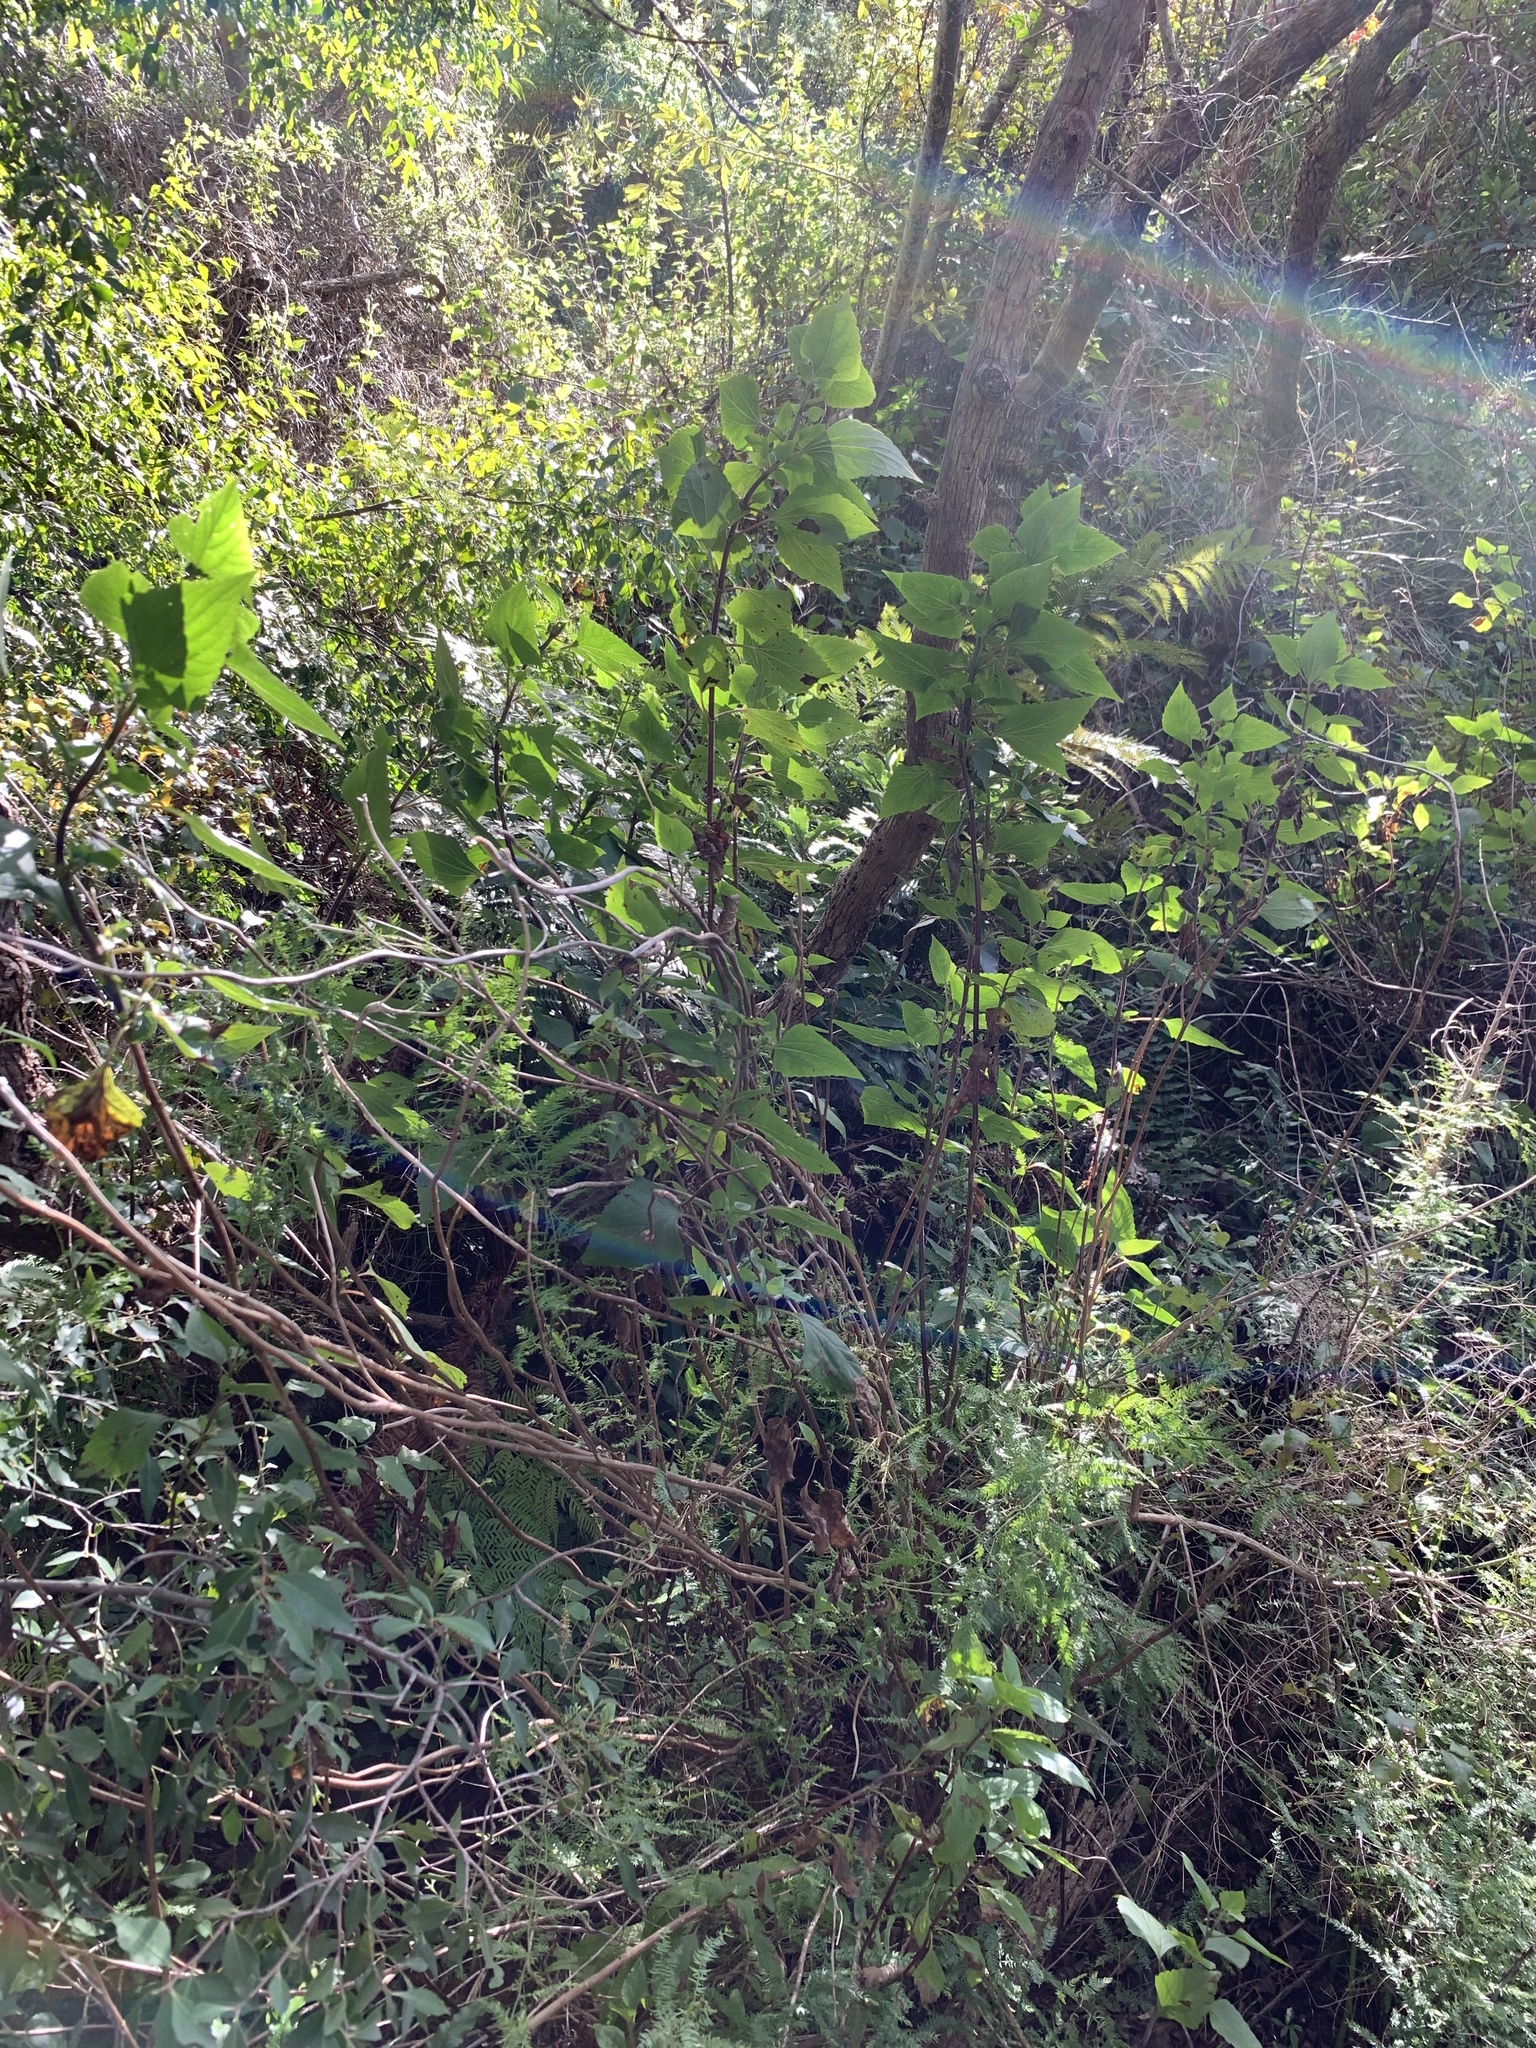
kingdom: Plantae
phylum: Tracheophyta
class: Magnoliopsida
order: Asterales
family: Asteraceae
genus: Ageratina
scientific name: Ageratina adenophora
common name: Sticky snakeroot
